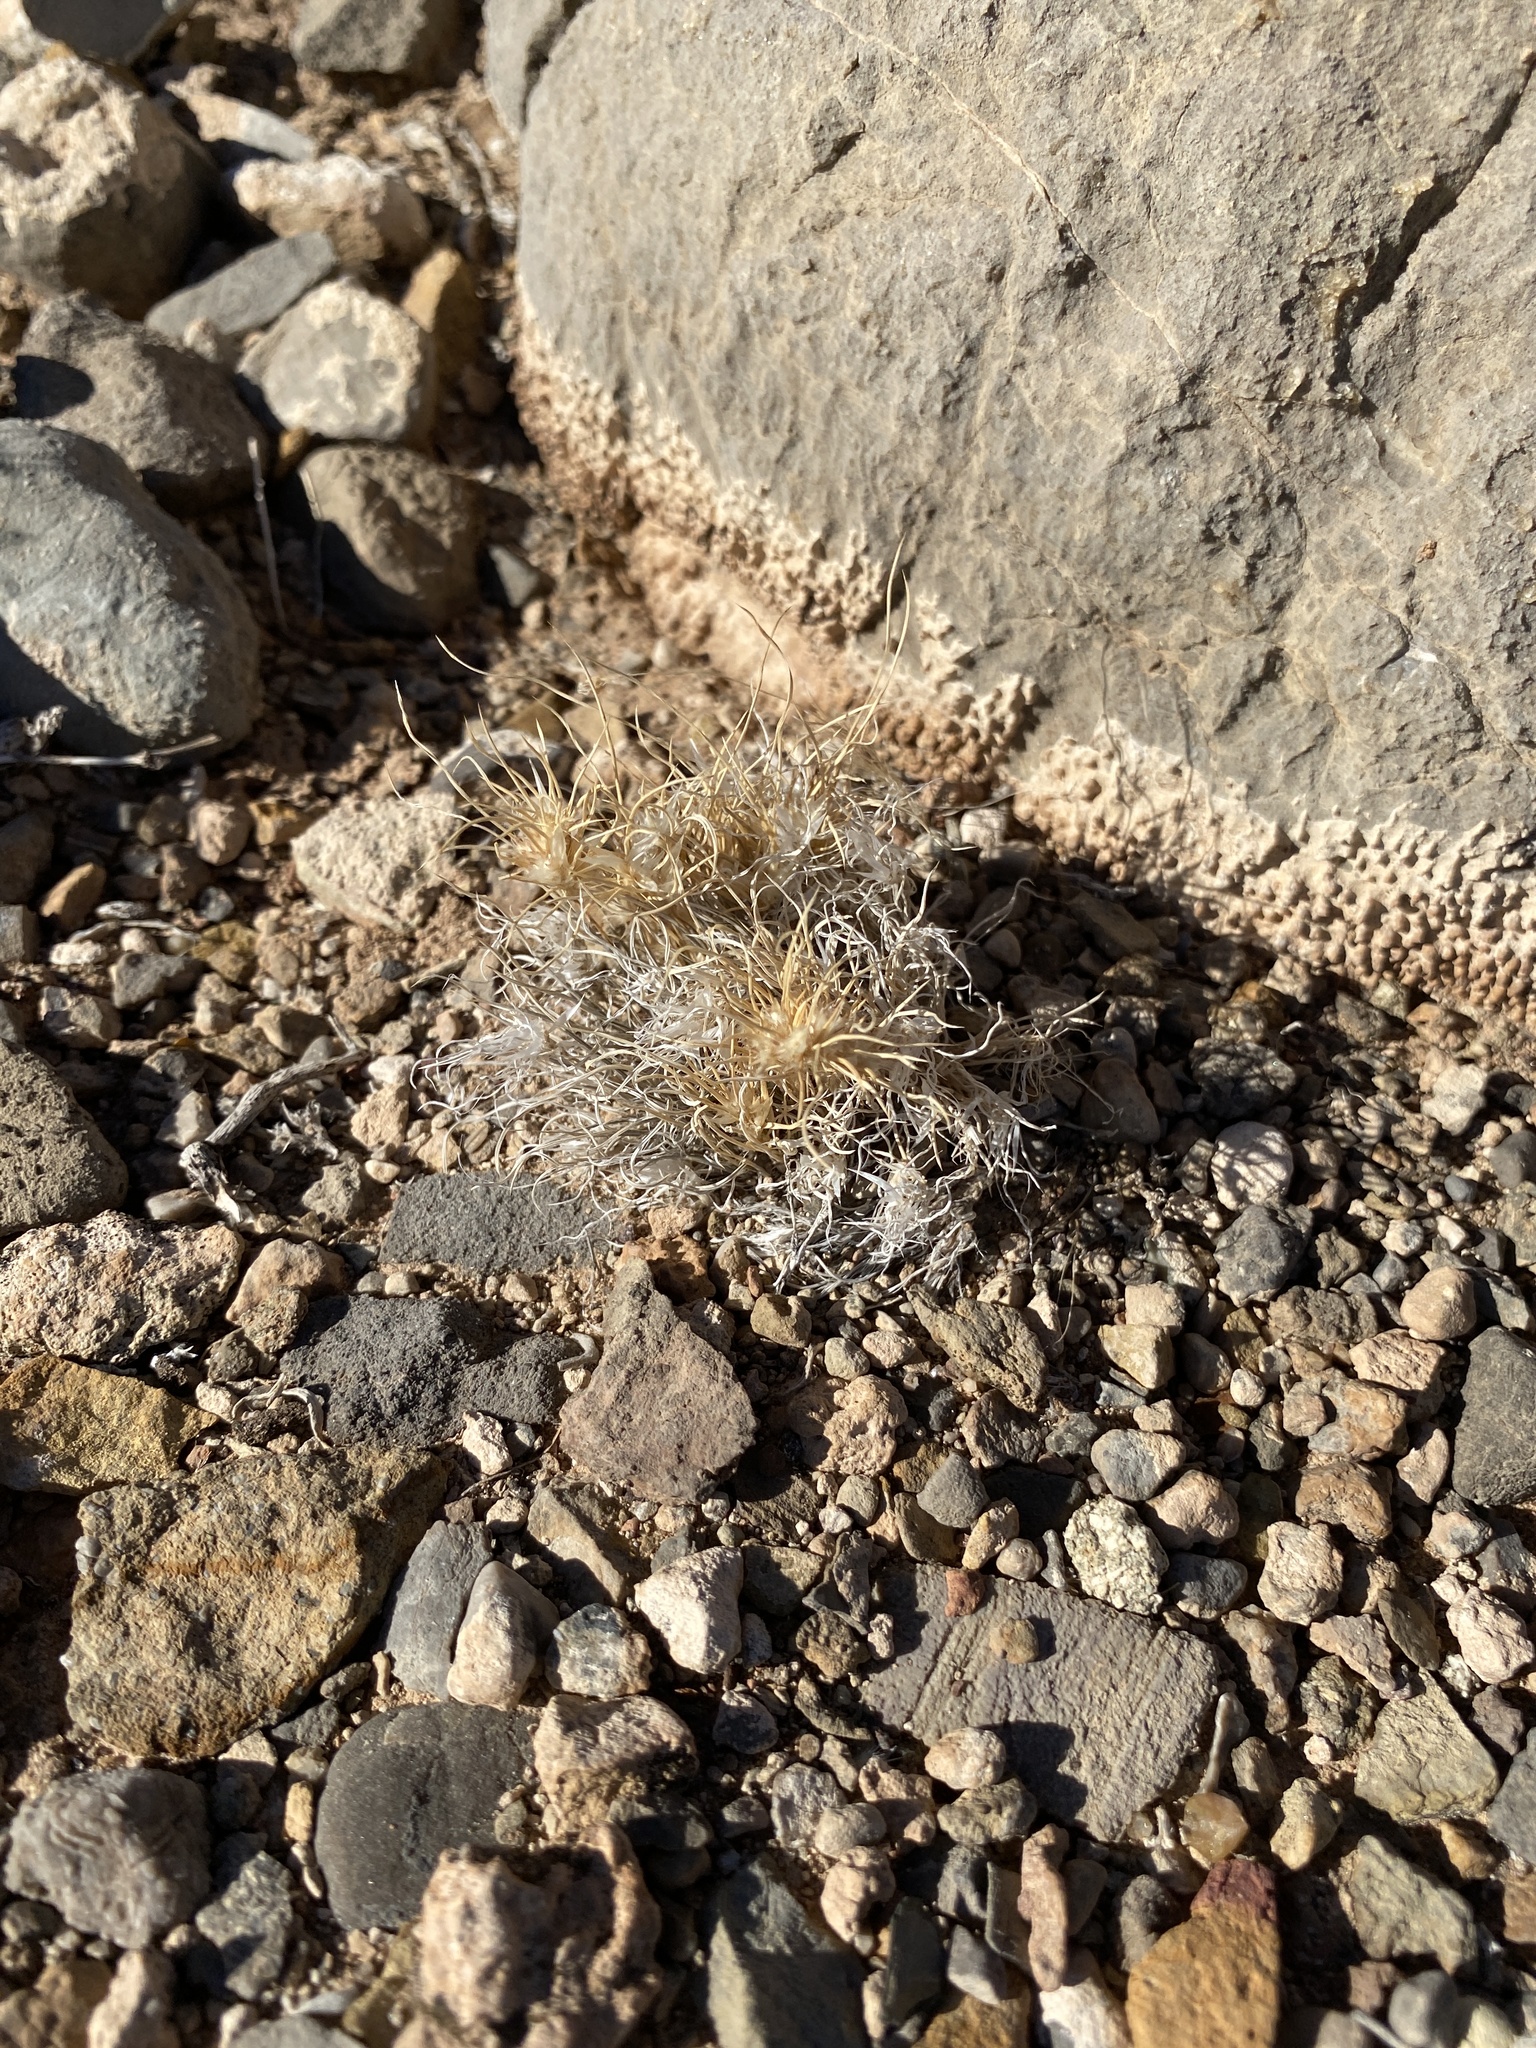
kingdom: Plantae
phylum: Tracheophyta
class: Liliopsida
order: Poales
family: Poaceae
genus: Dasyochloa
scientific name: Dasyochloa pulchella
